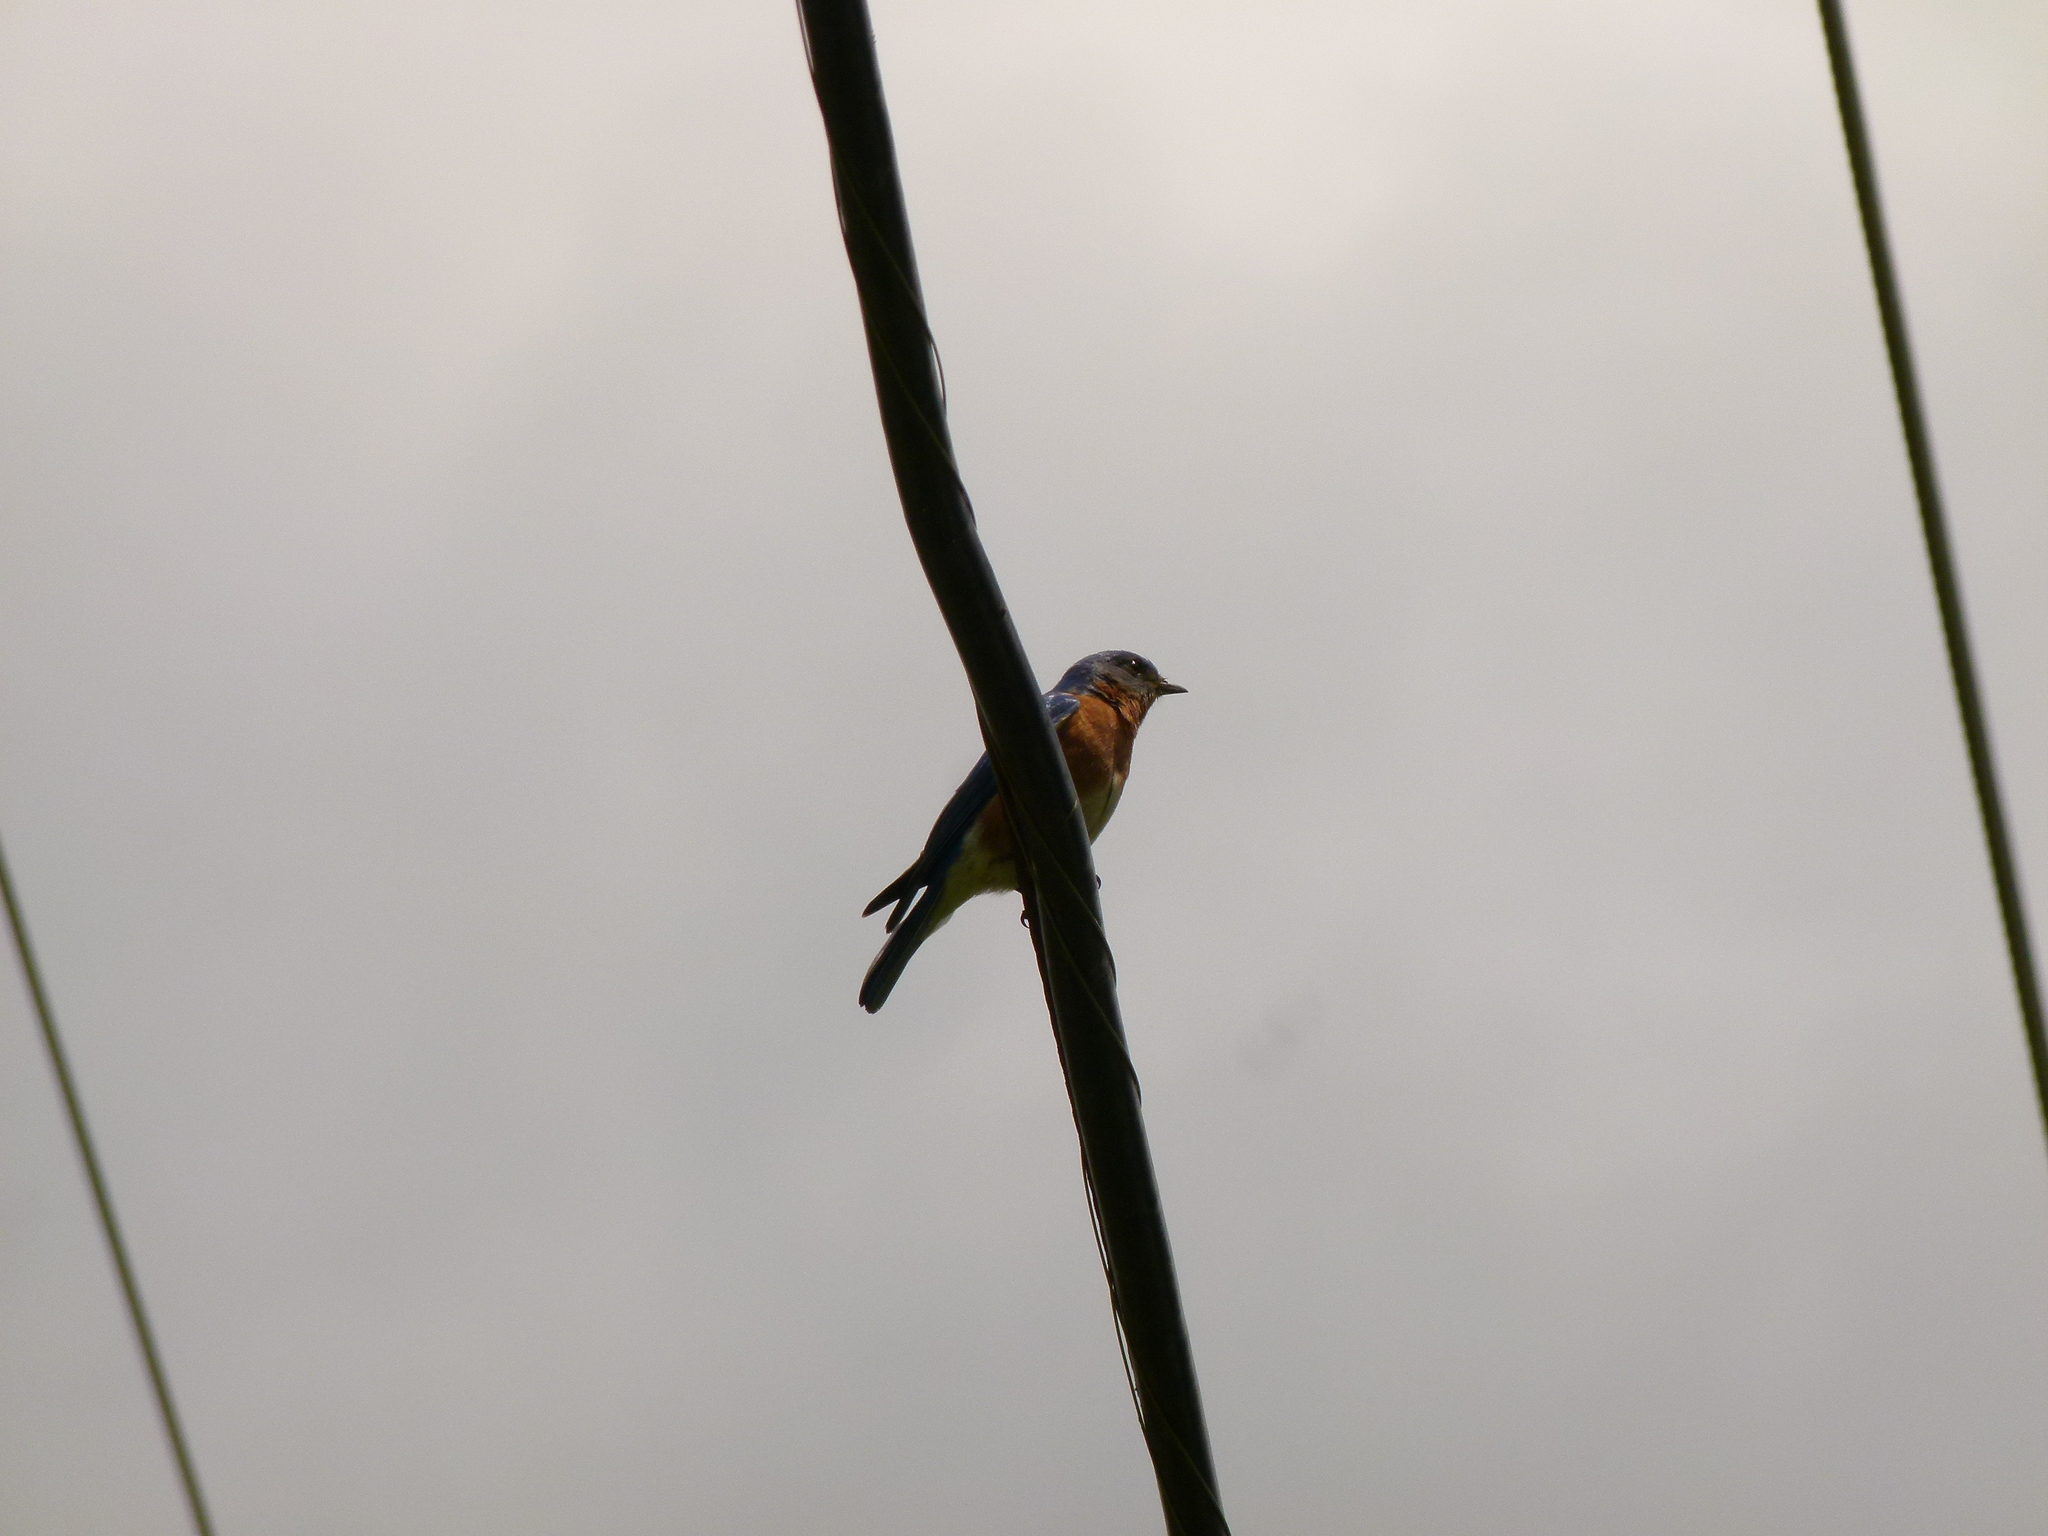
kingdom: Animalia
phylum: Chordata
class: Aves
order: Passeriformes
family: Turdidae
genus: Sialia
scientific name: Sialia sialis
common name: Eastern bluebird
